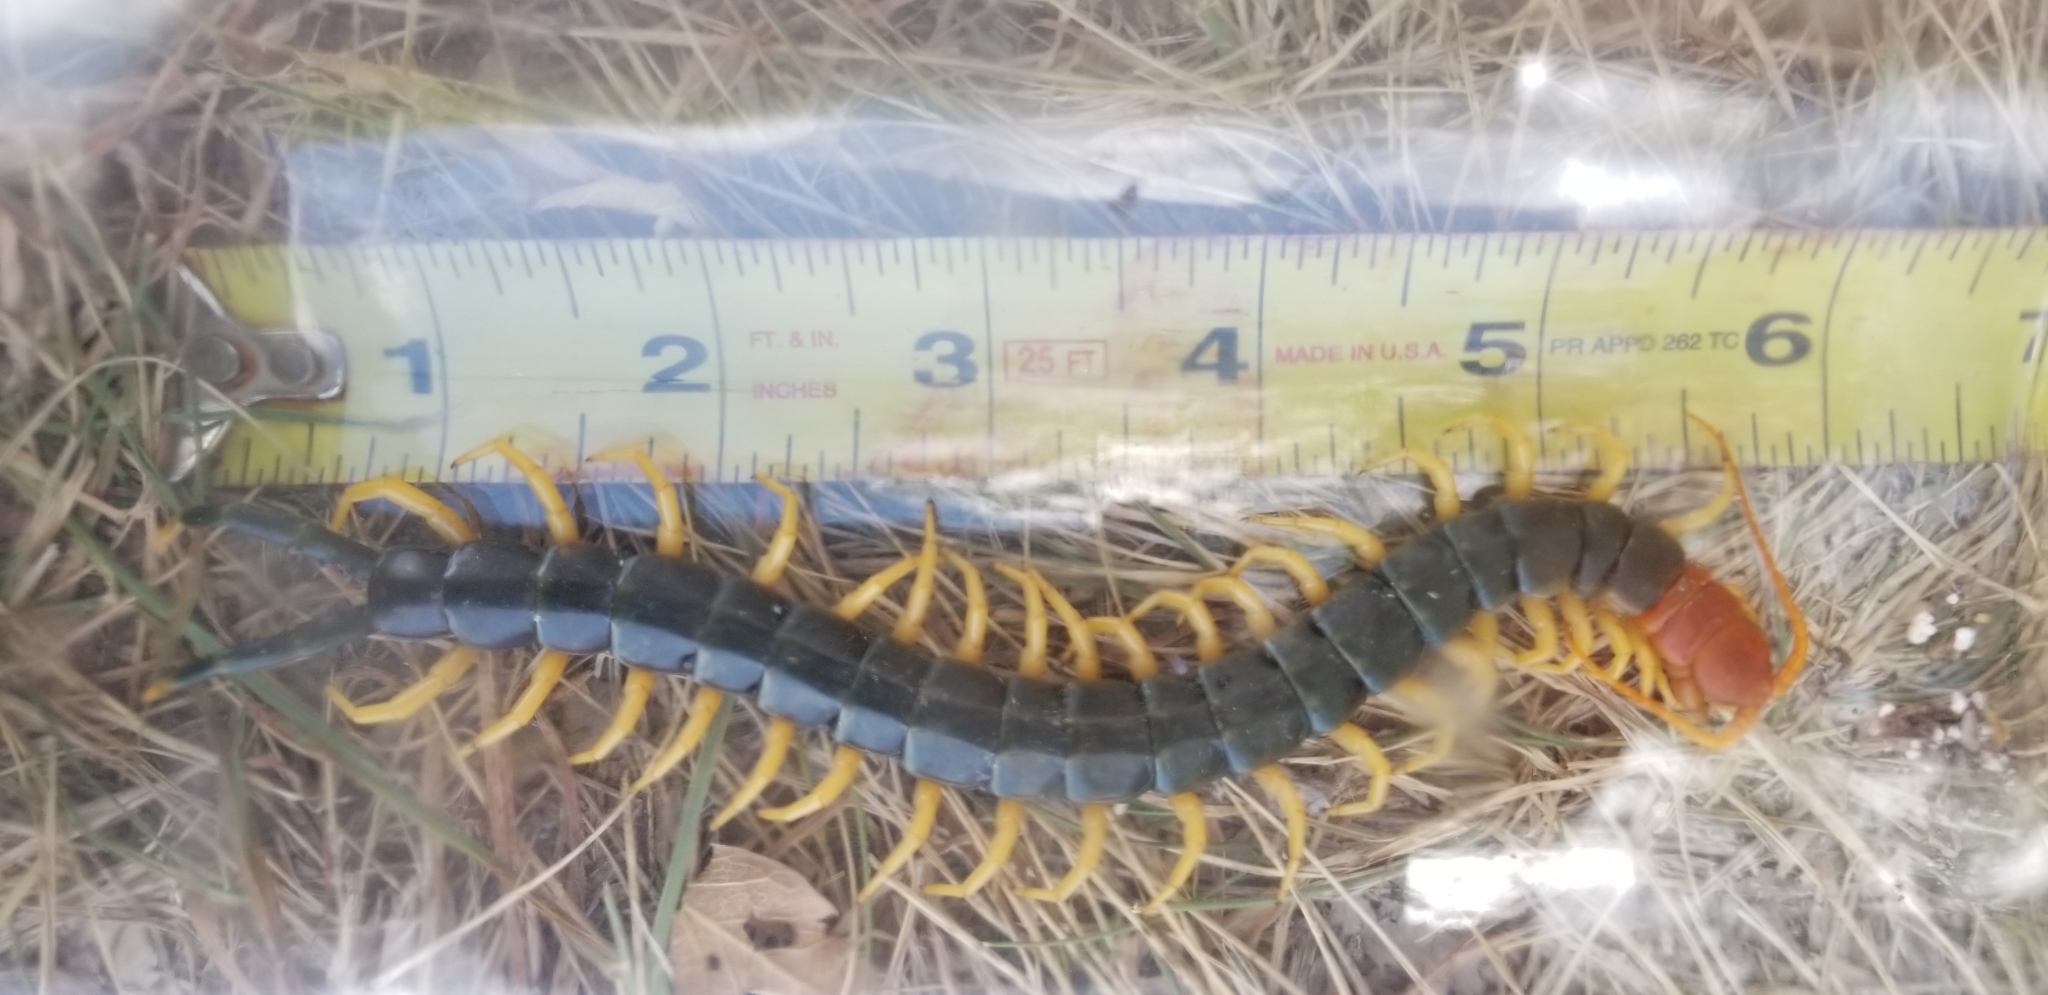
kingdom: Animalia
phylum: Arthropoda
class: Chilopoda
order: Scolopendromorpha
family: Scolopendridae
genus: Scolopendra
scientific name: Scolopendra heros
